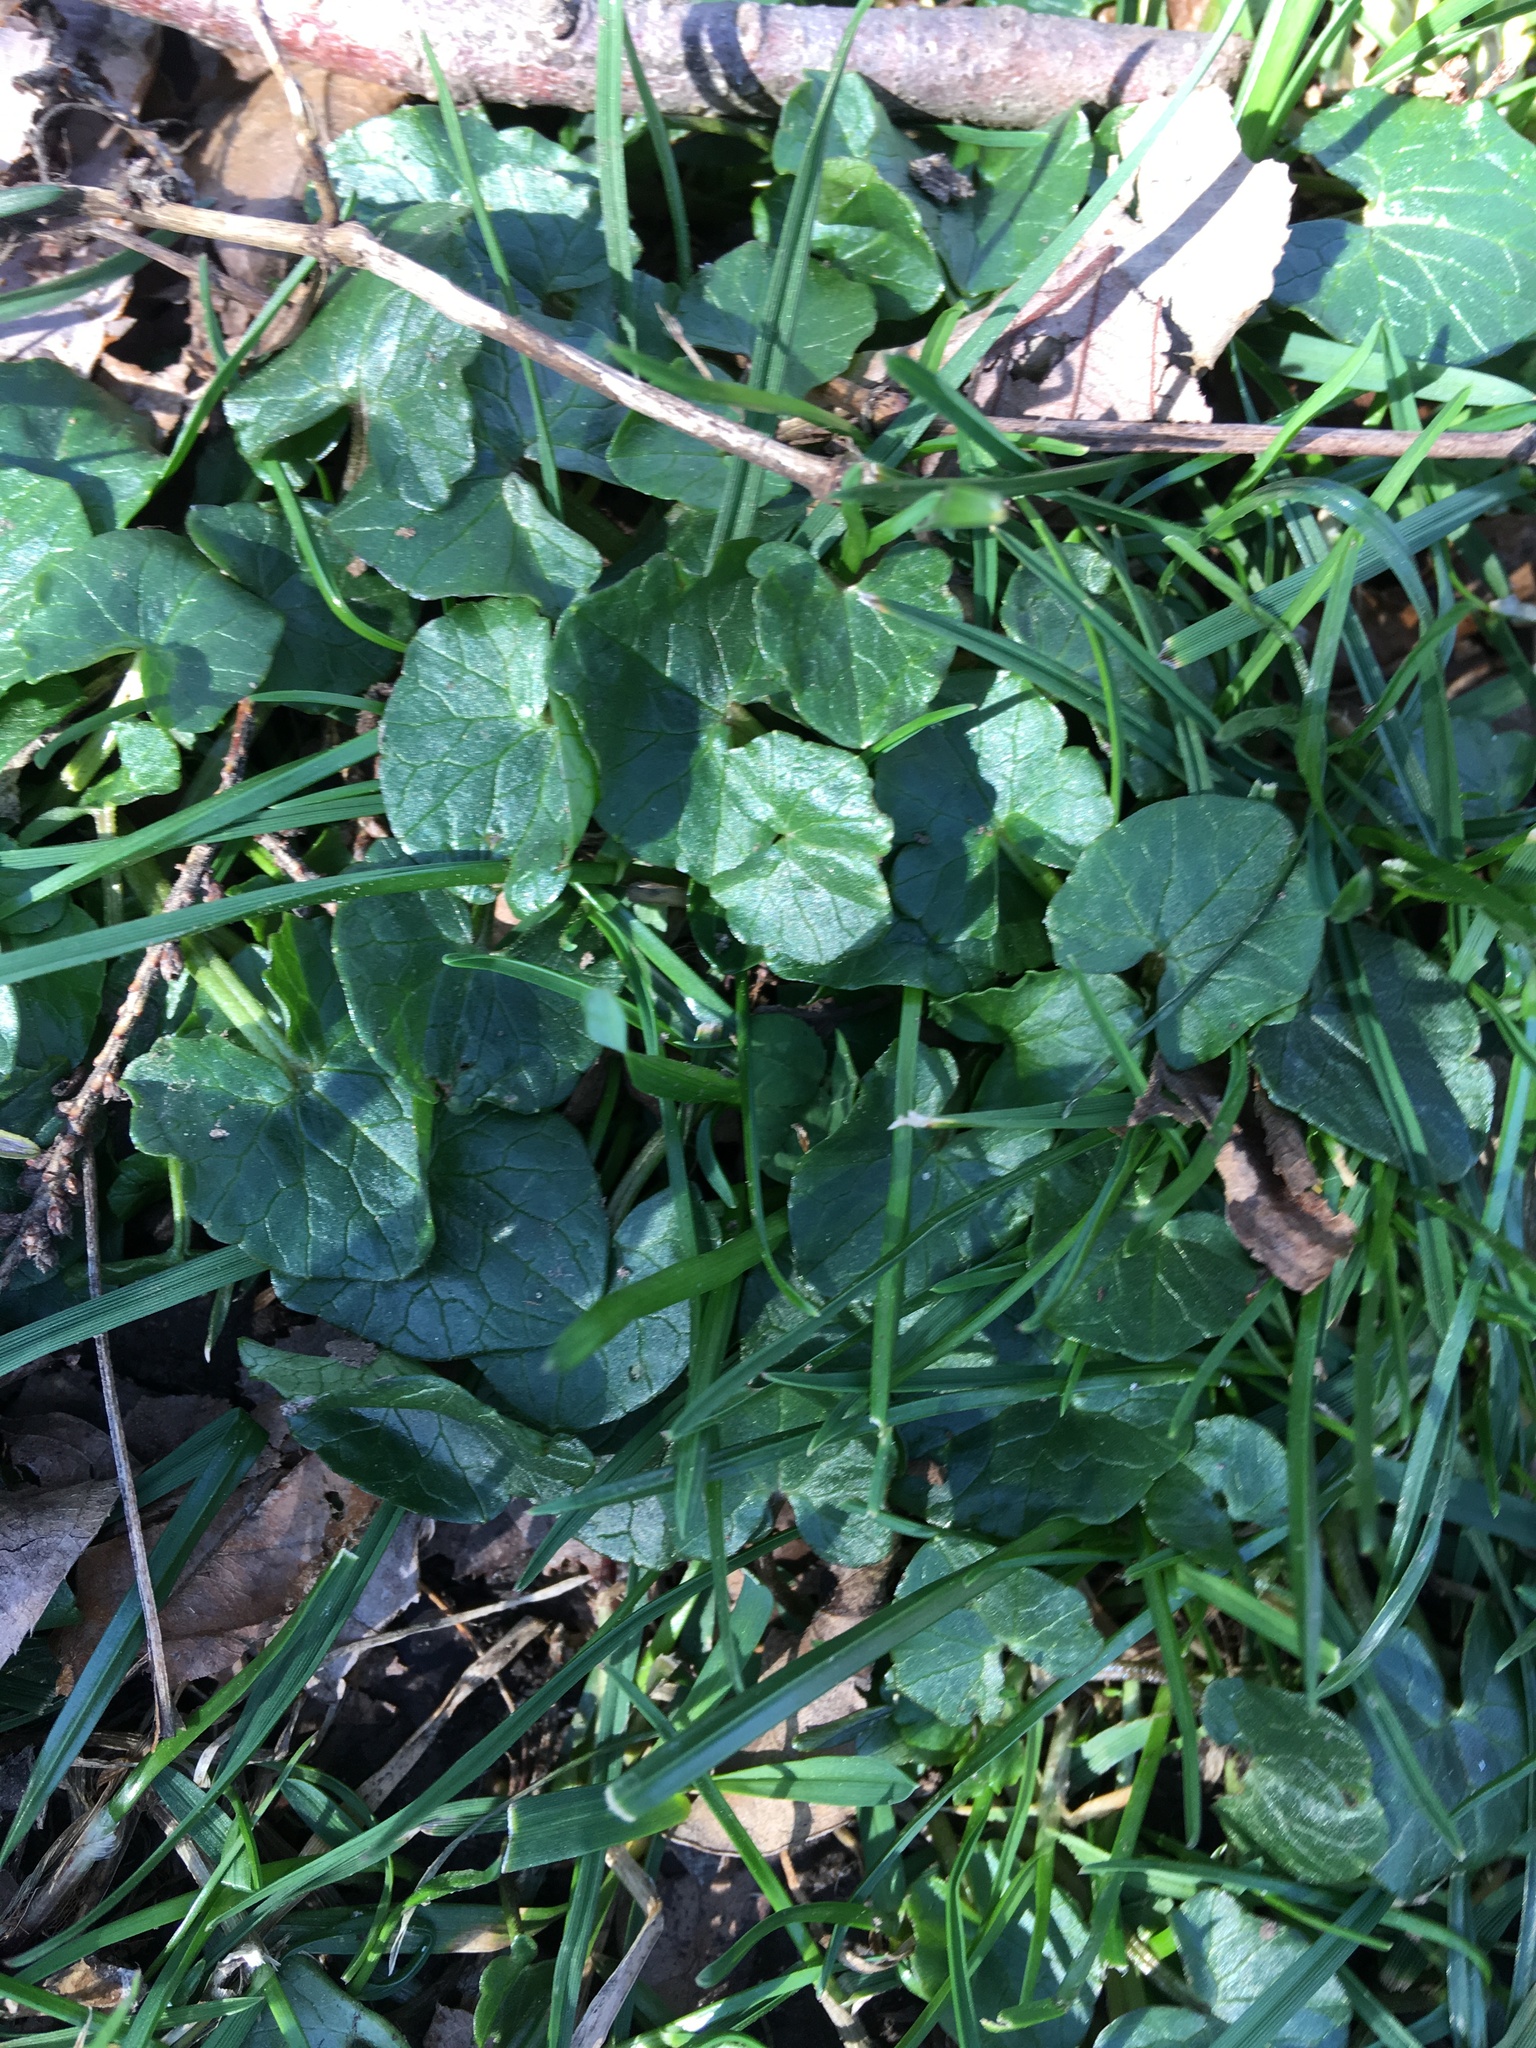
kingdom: Plantae
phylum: Tracheophyta
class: Magnoliopsida
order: Ranunculales
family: Ranunculaceae
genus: Ficaria
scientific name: Ficaria verna
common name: Lesser celandine
